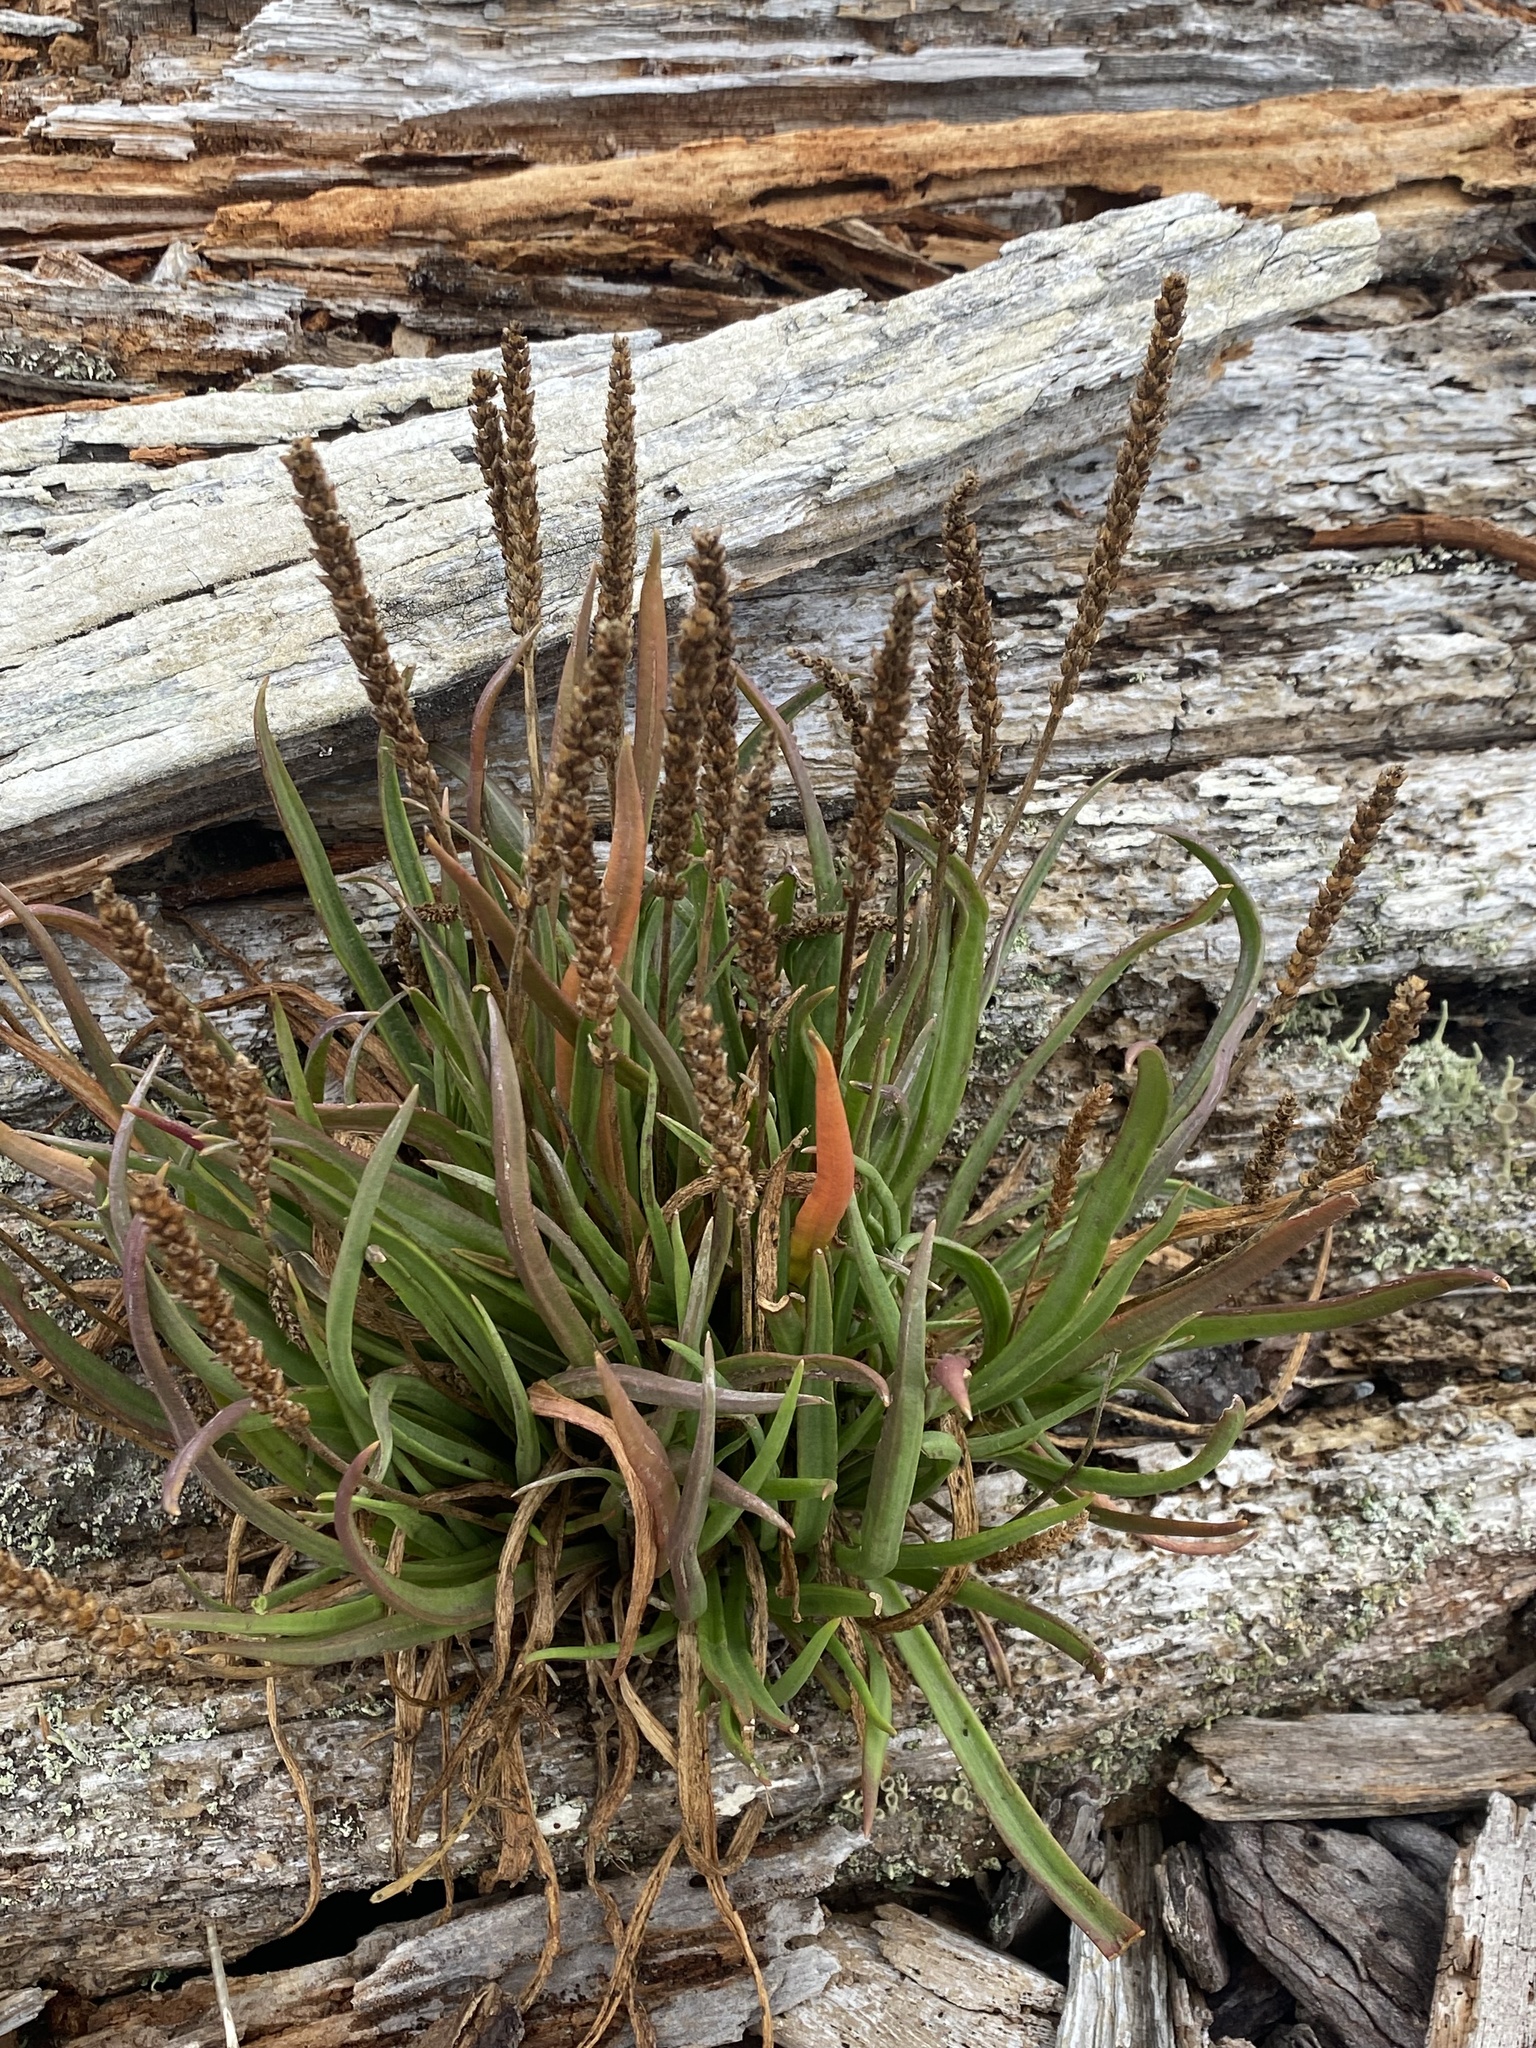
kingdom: Plantae
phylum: Tracheophyta
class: Magnoliopsida
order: Lamiales
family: Plantaginaceae
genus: Plantago
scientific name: Plantago maritima
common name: Sea plantain
